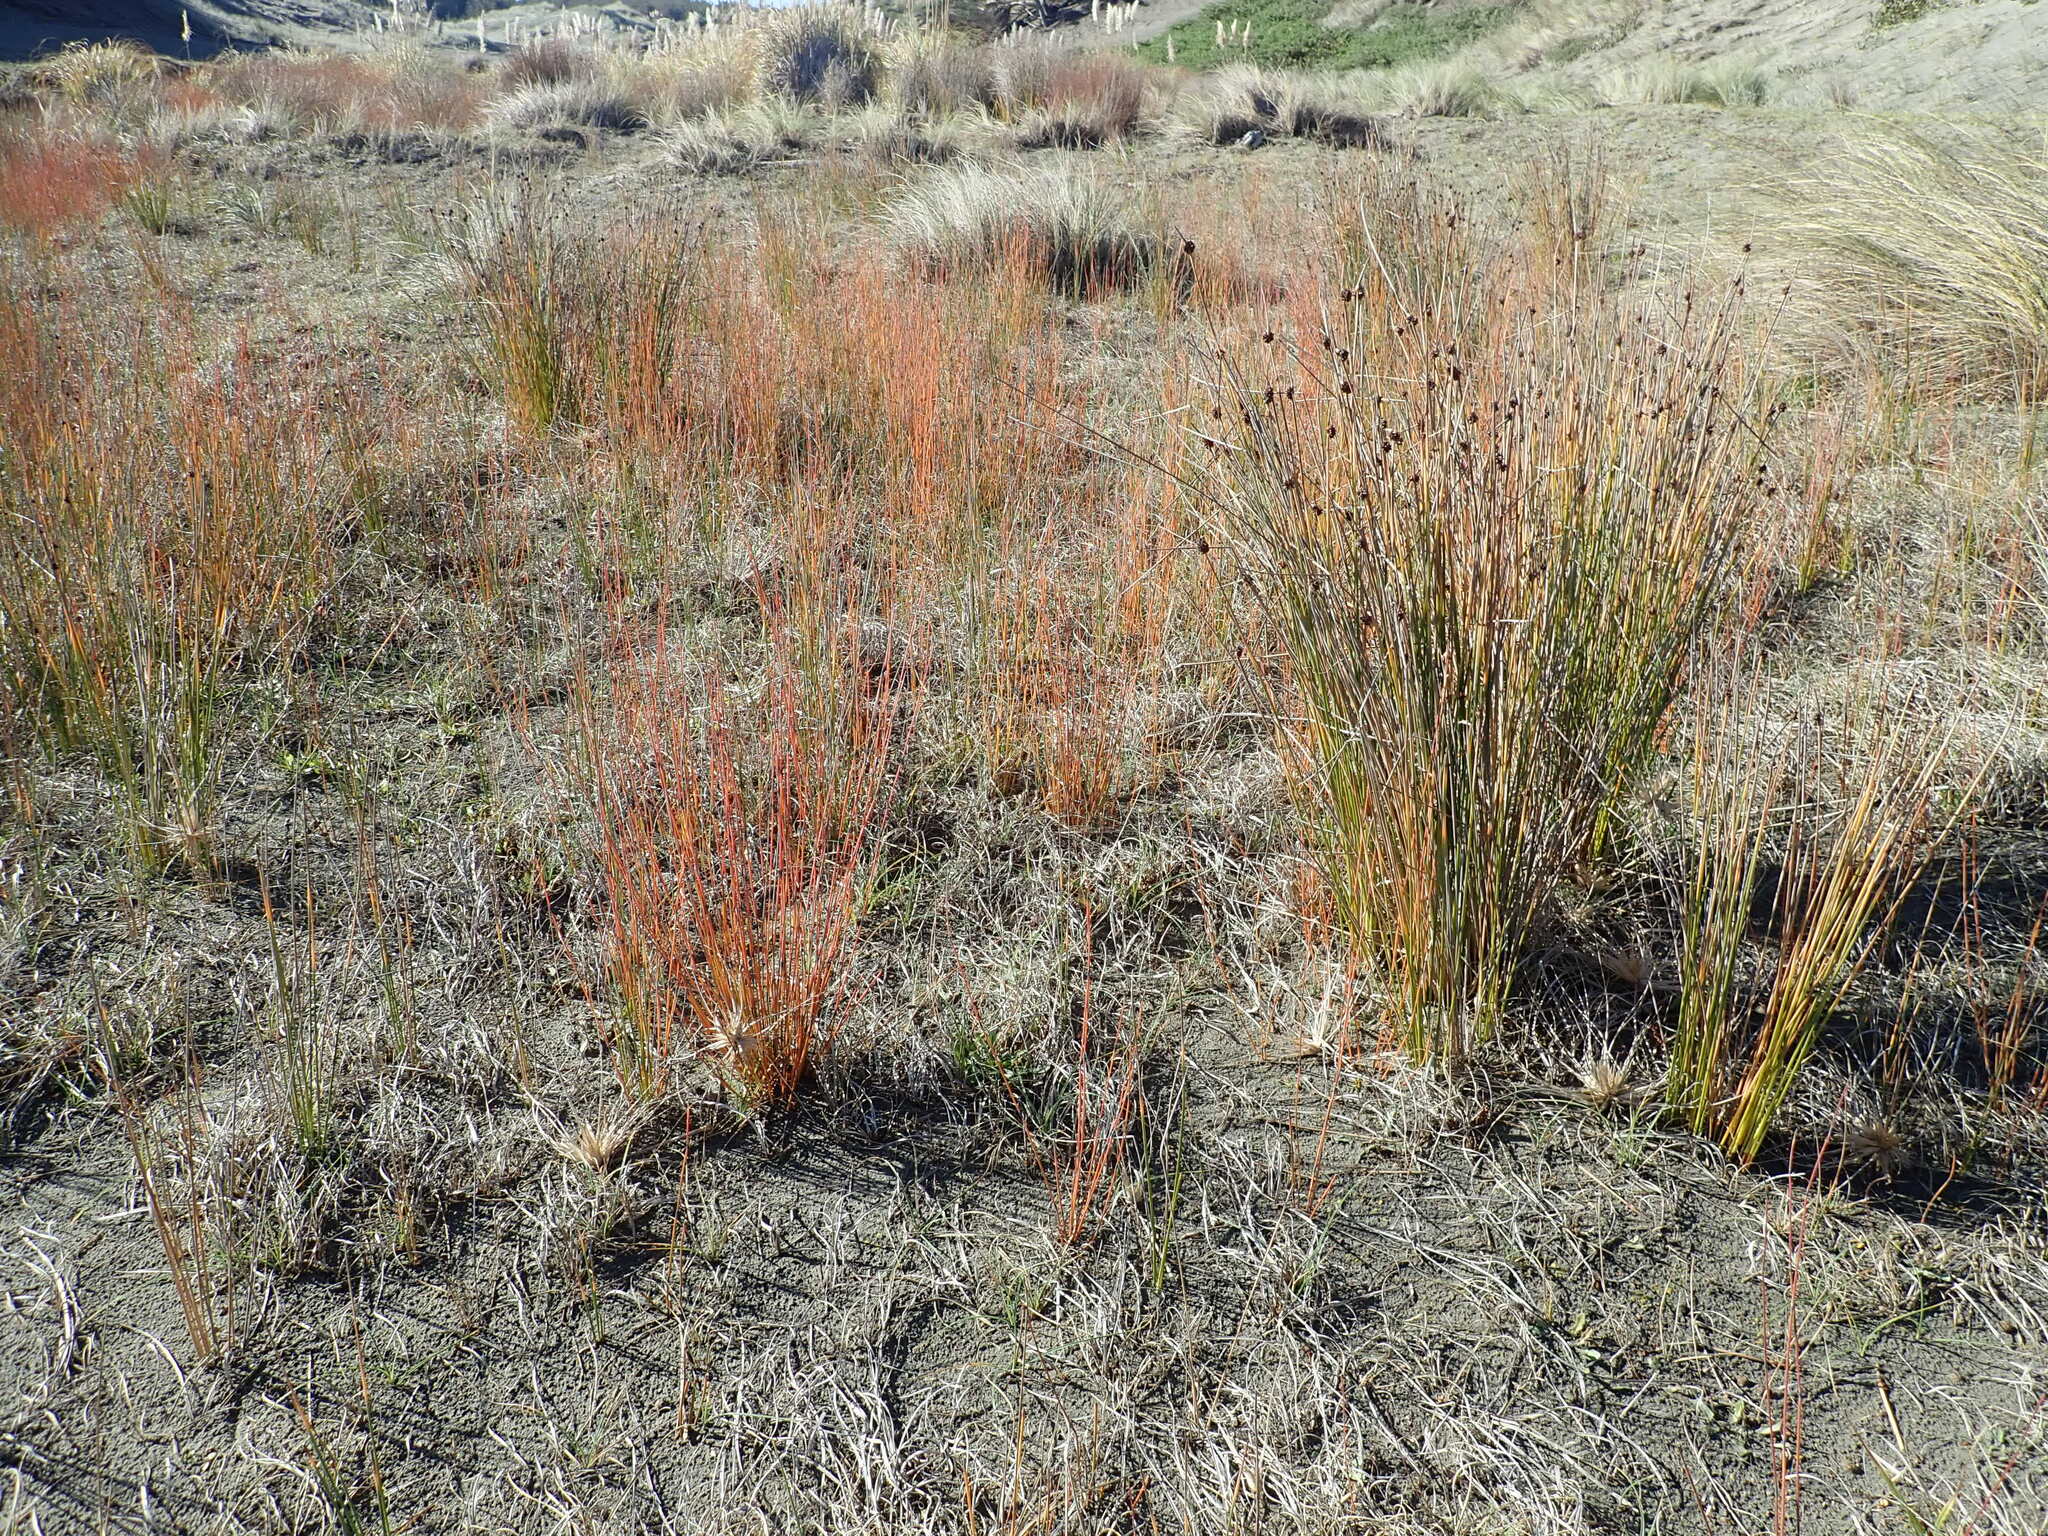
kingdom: Plantae
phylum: Tracheophyta
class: Liliopsida
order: Poales
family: Restionaceae
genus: Apodasmia
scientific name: Apodasmia similis
